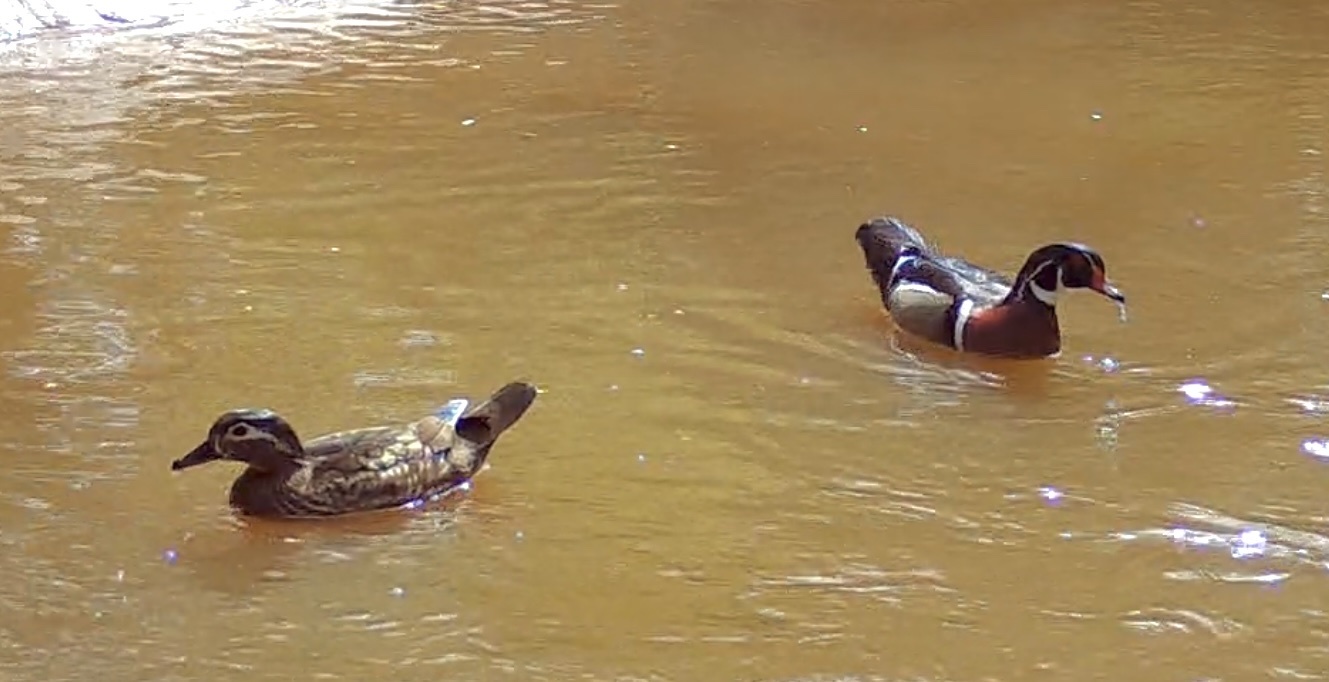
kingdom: Animalia
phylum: Chordata
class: Aves
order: Anseriformes
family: Anatidae
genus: Aix
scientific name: Aix sponsa
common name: Wood duck
